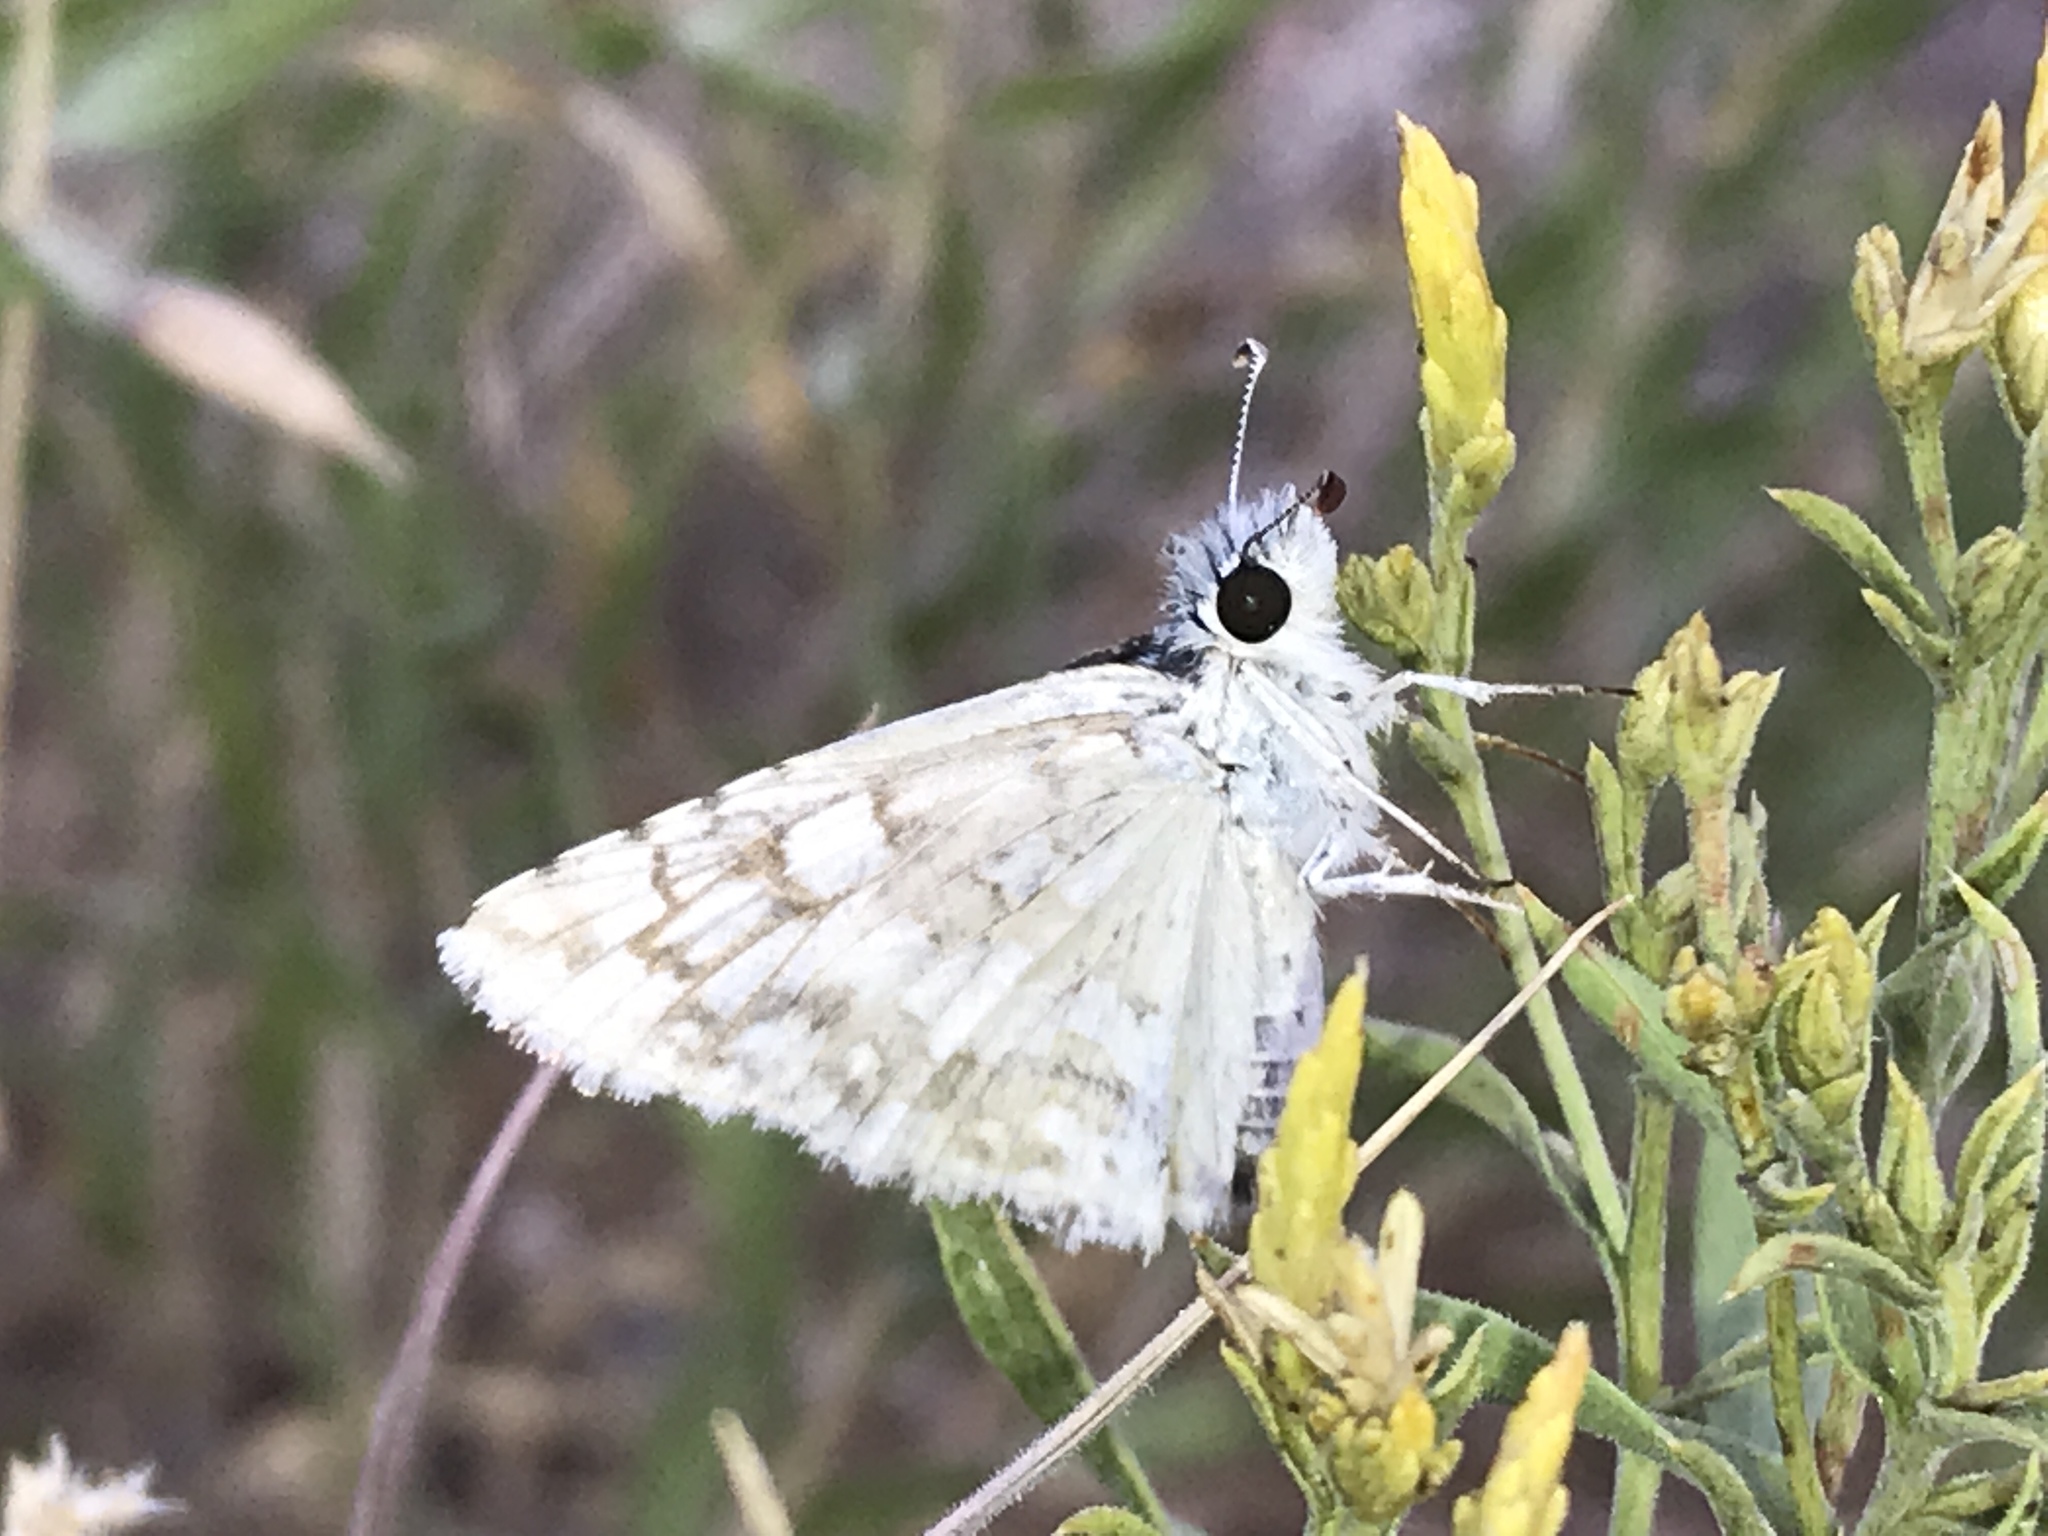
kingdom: Animalia
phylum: Arthropoda
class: Insecta
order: Lepidoptera
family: Hesperiidae
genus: Burnsius
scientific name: Burnsius communis
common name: Common checkered-skipper
